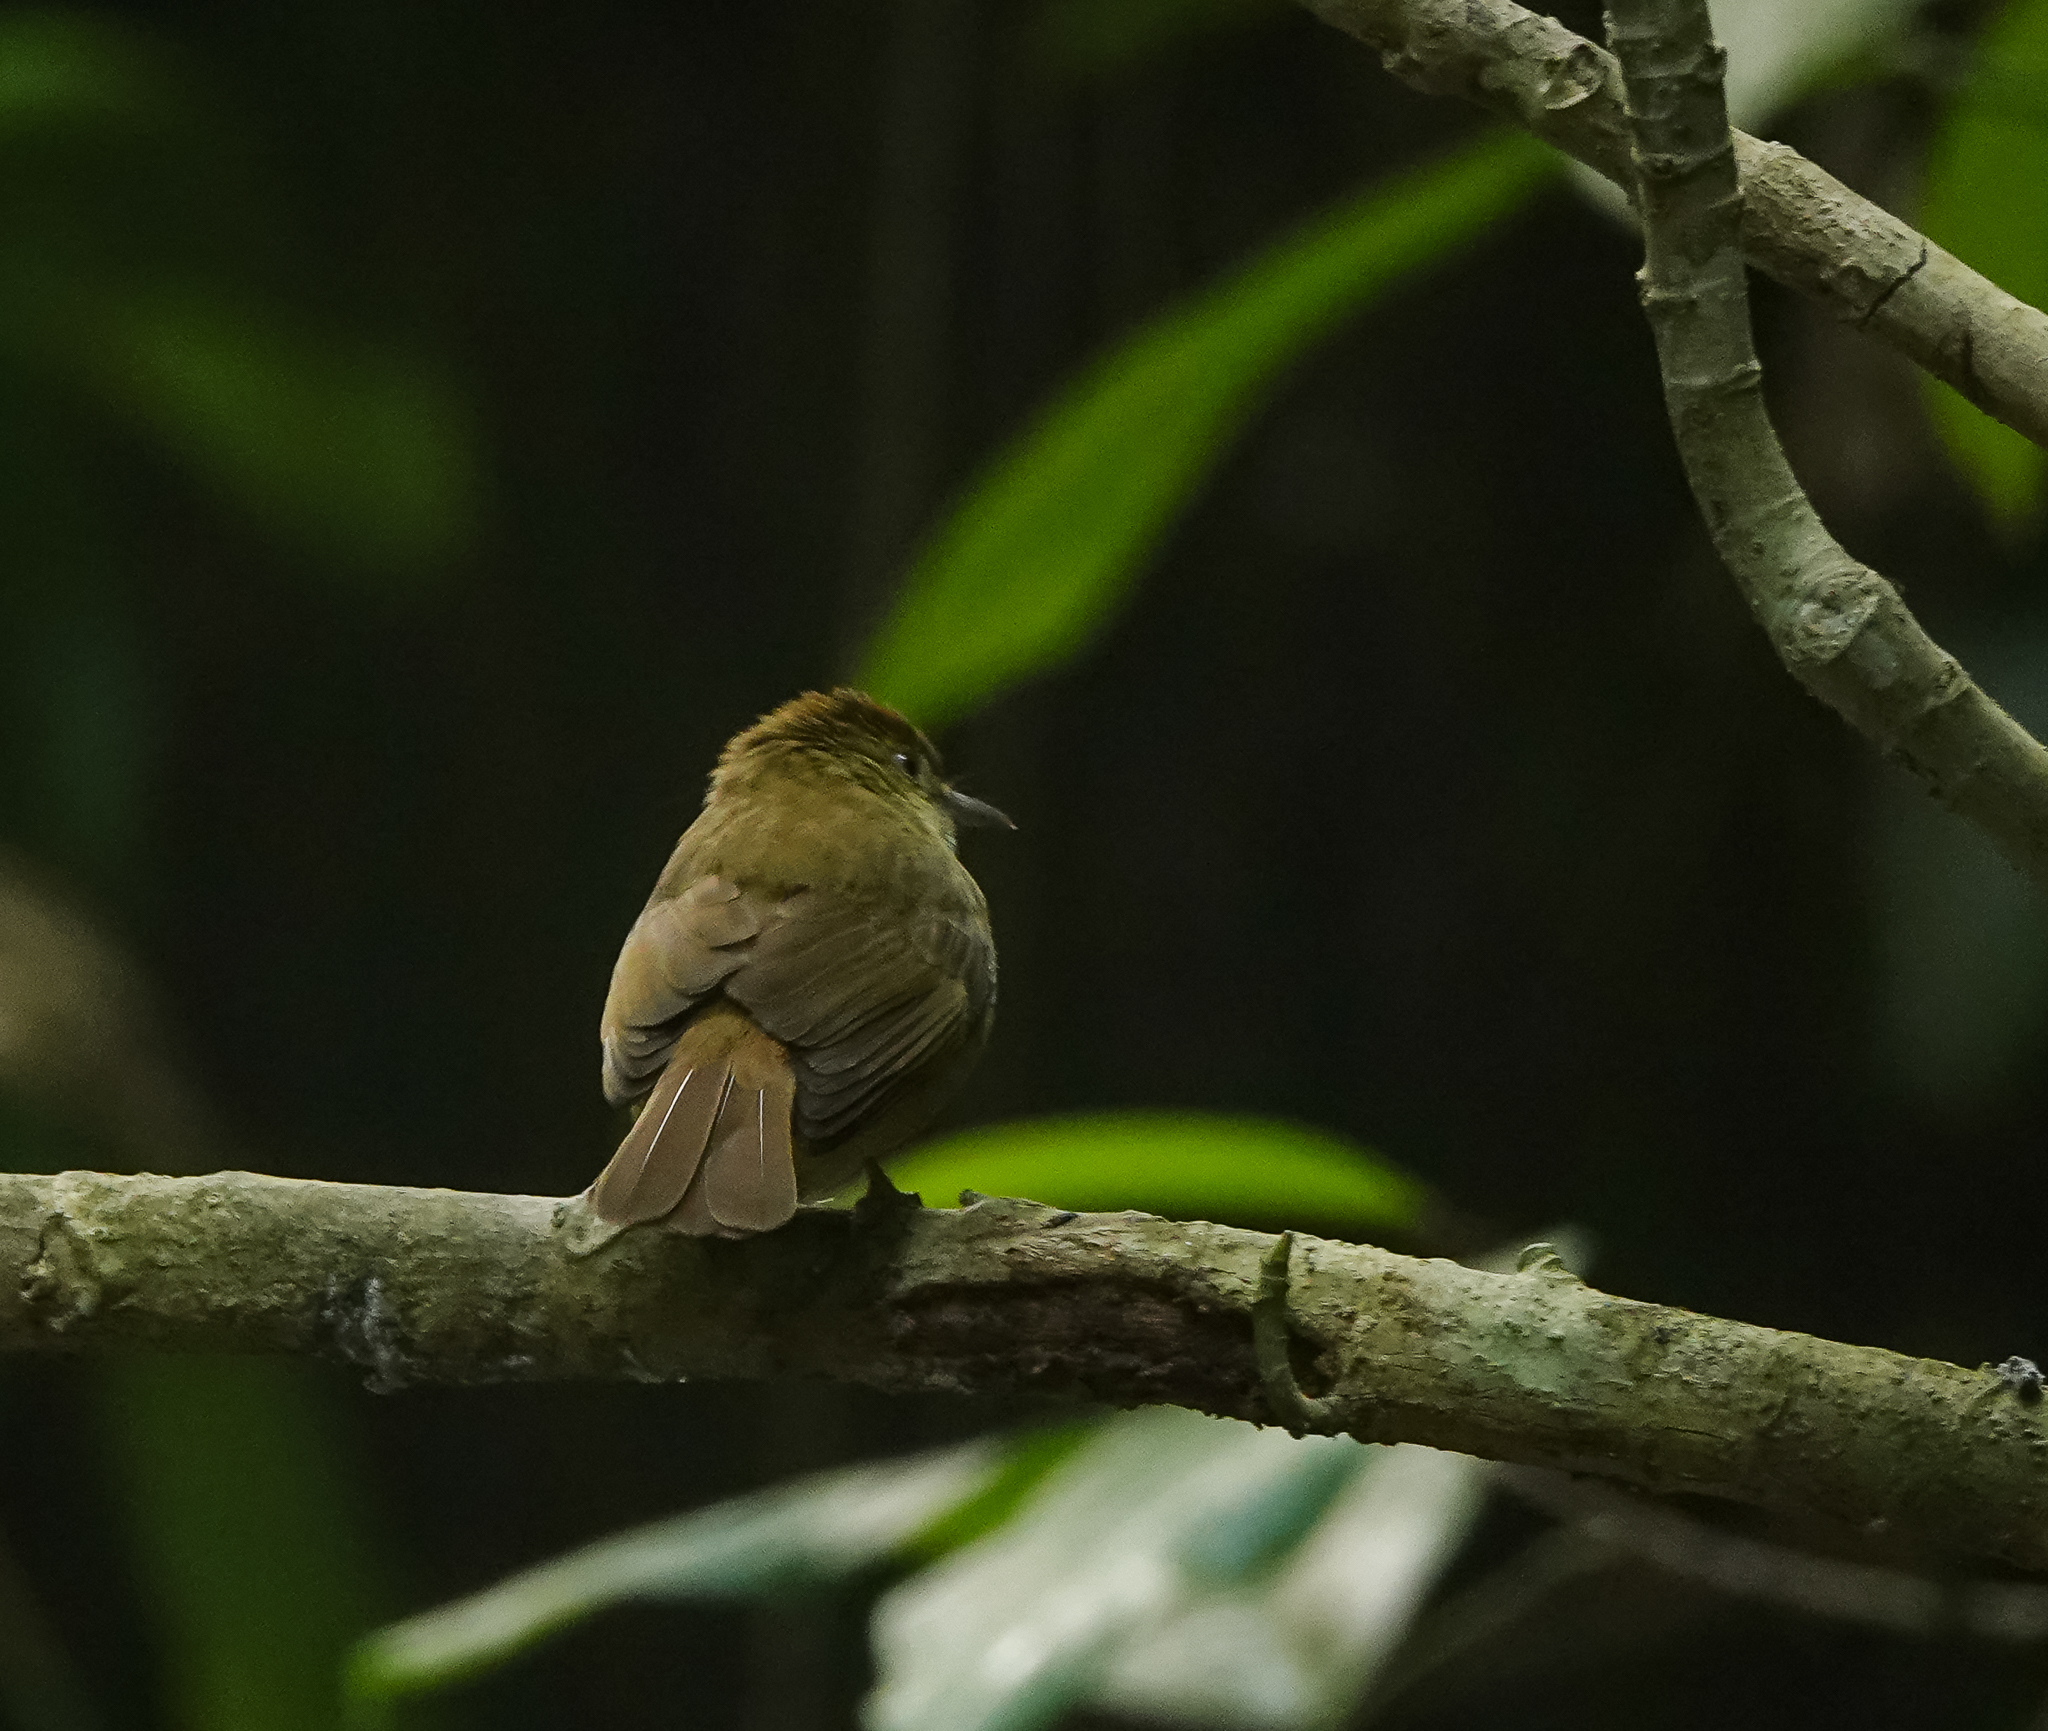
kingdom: Animalia
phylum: Chordata
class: Aves
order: Passeriformes
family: Pycnonotidae
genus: Iole
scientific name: Iole virescens
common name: Olive bulbul
